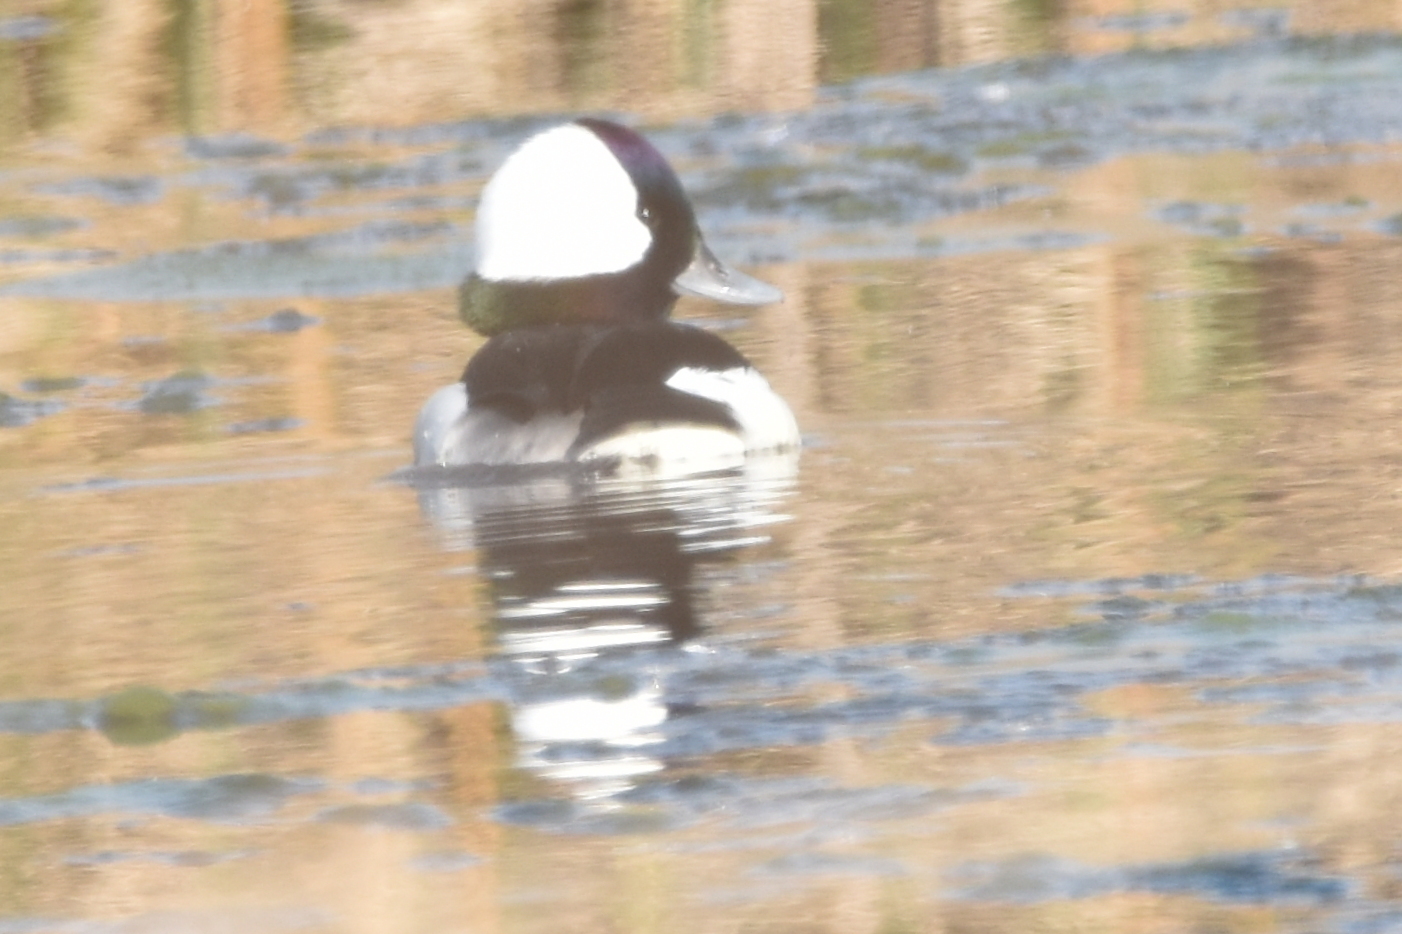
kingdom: Animalia
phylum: Chordata
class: Aves
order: Anseriformes
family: Anatidae
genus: Bucephala
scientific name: Bucephala albeola
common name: Bufflehead
